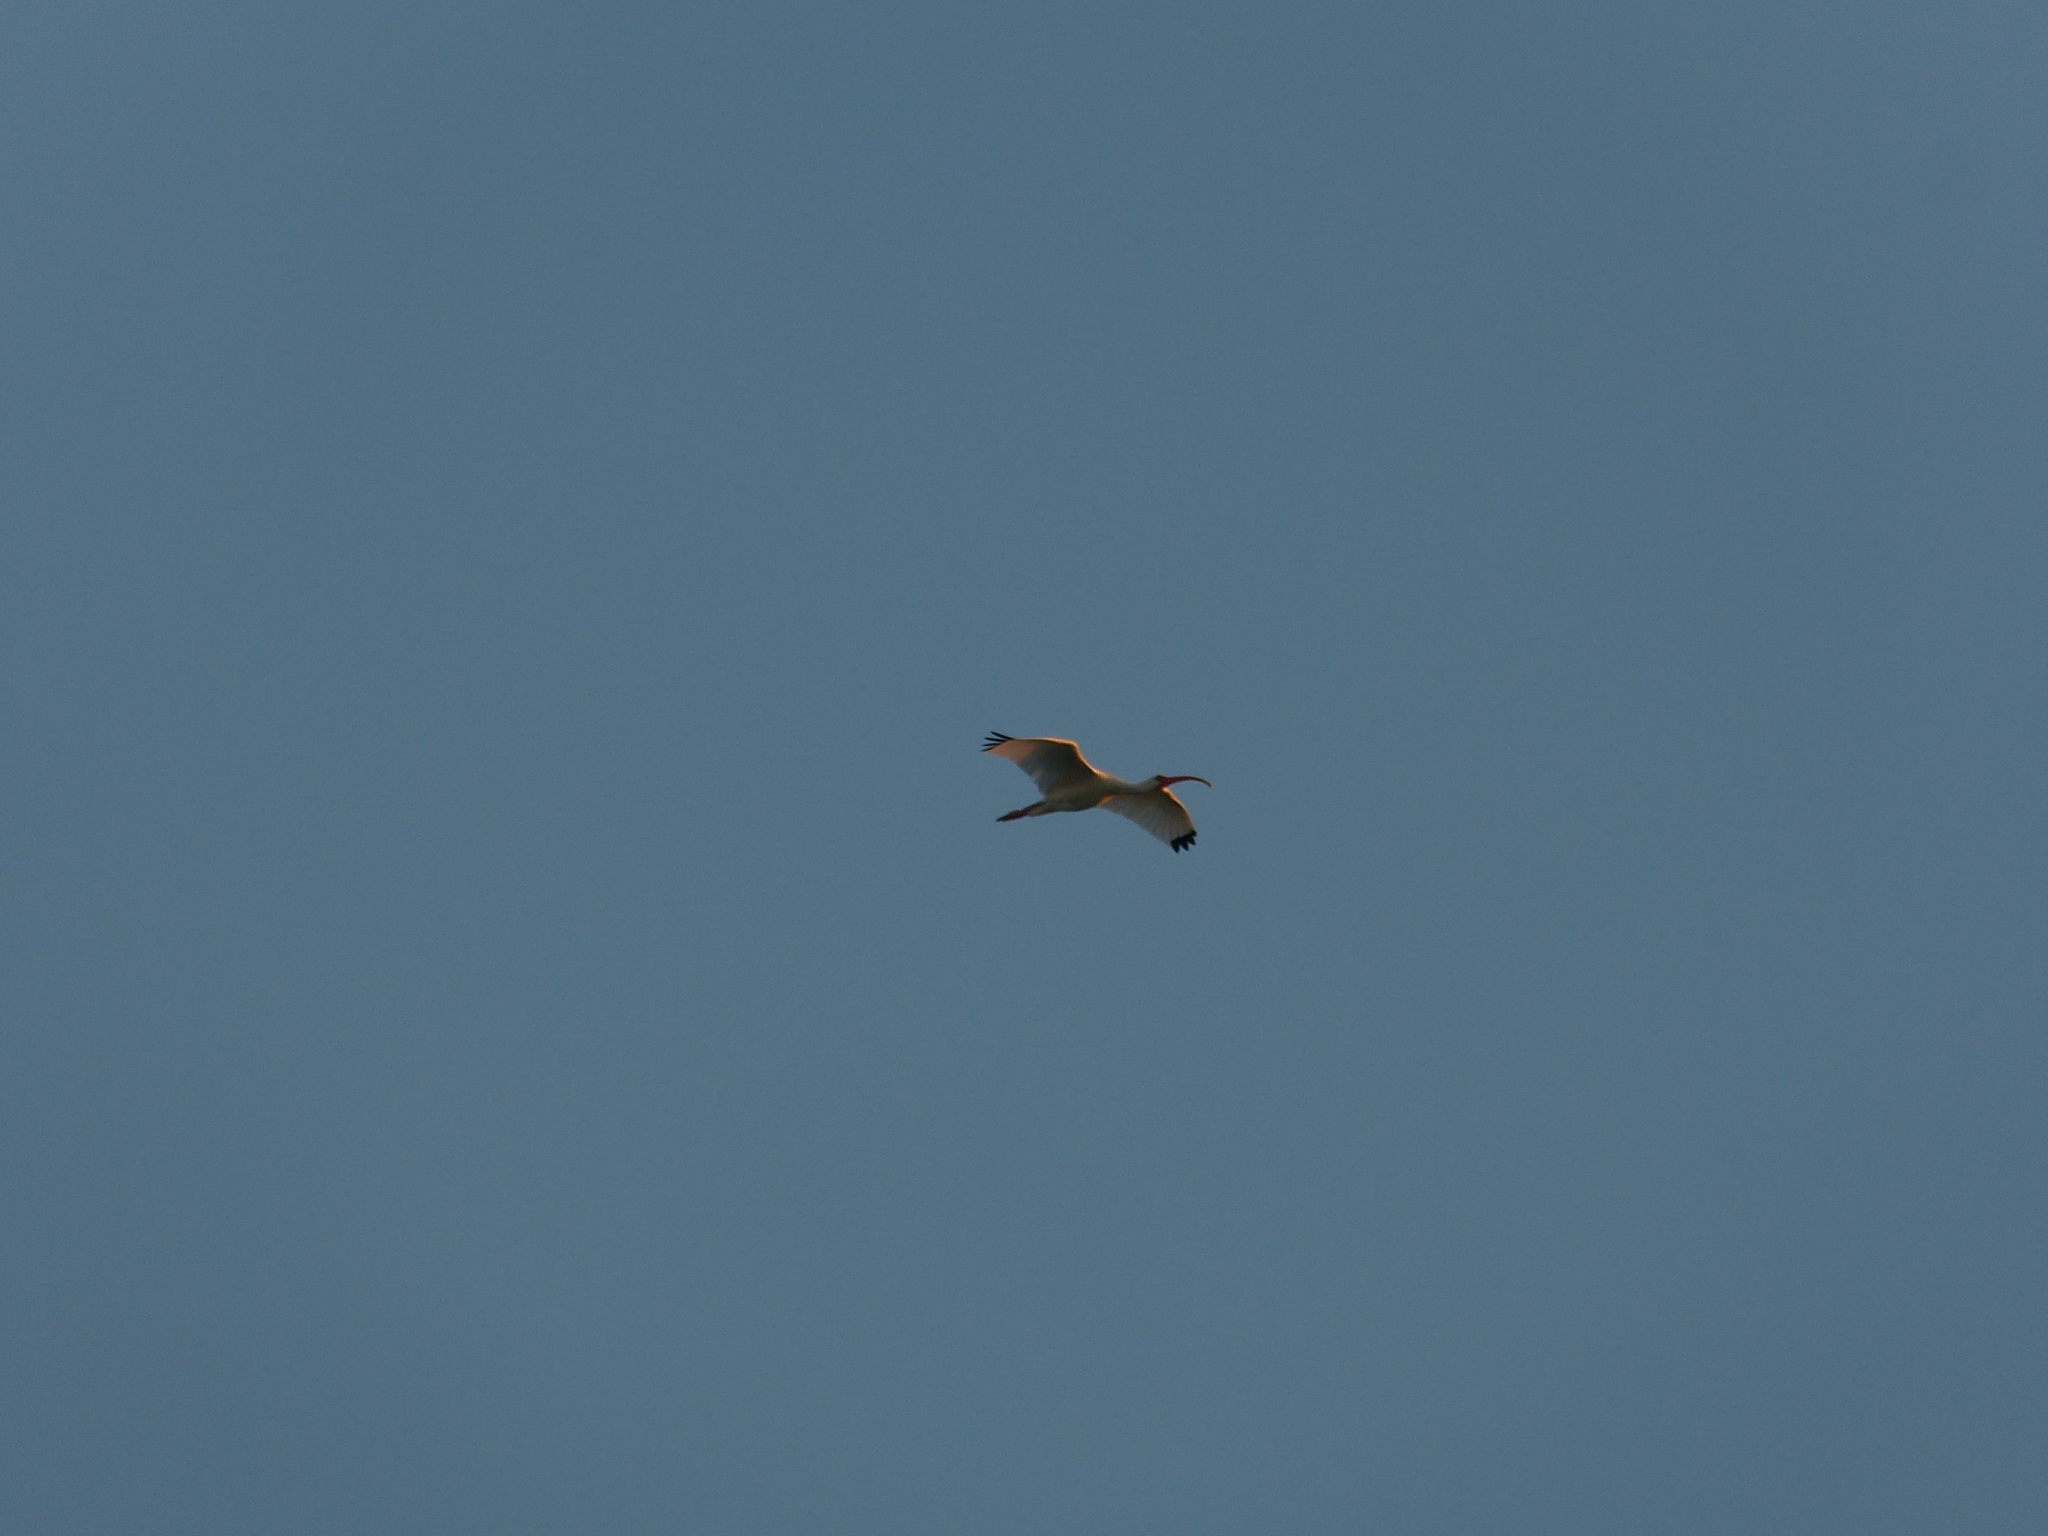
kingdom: Animalia
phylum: Chordata
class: Aves
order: Pelecaniformes
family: Threskiornithidae
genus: Eudocimus
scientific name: Eudocimus albus
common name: White ibis
